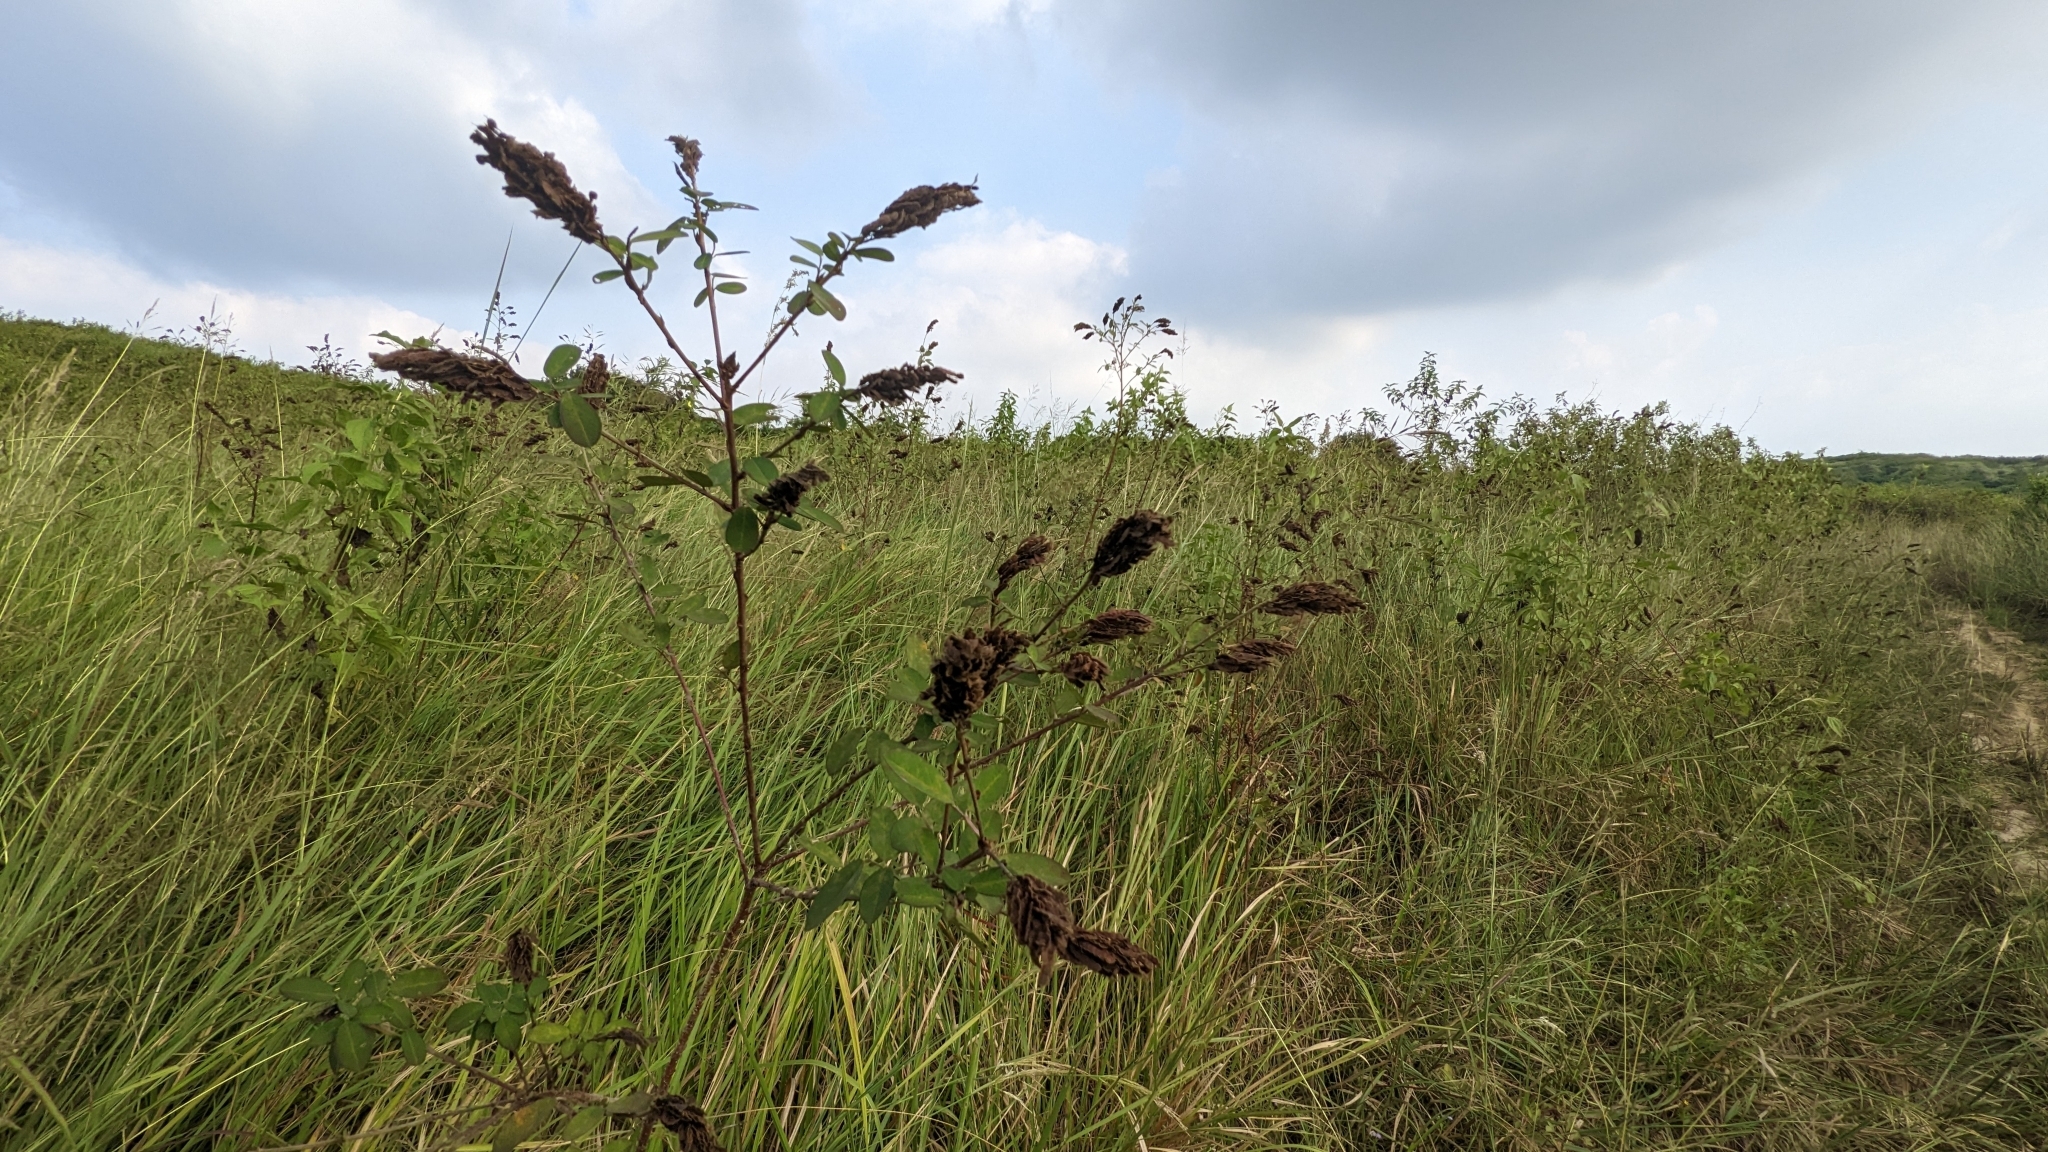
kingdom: Plantae
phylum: Tracheophyta
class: Magnoliopsida
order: Fabales
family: Fabaceae
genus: Grona
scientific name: Grona heterocarpos
